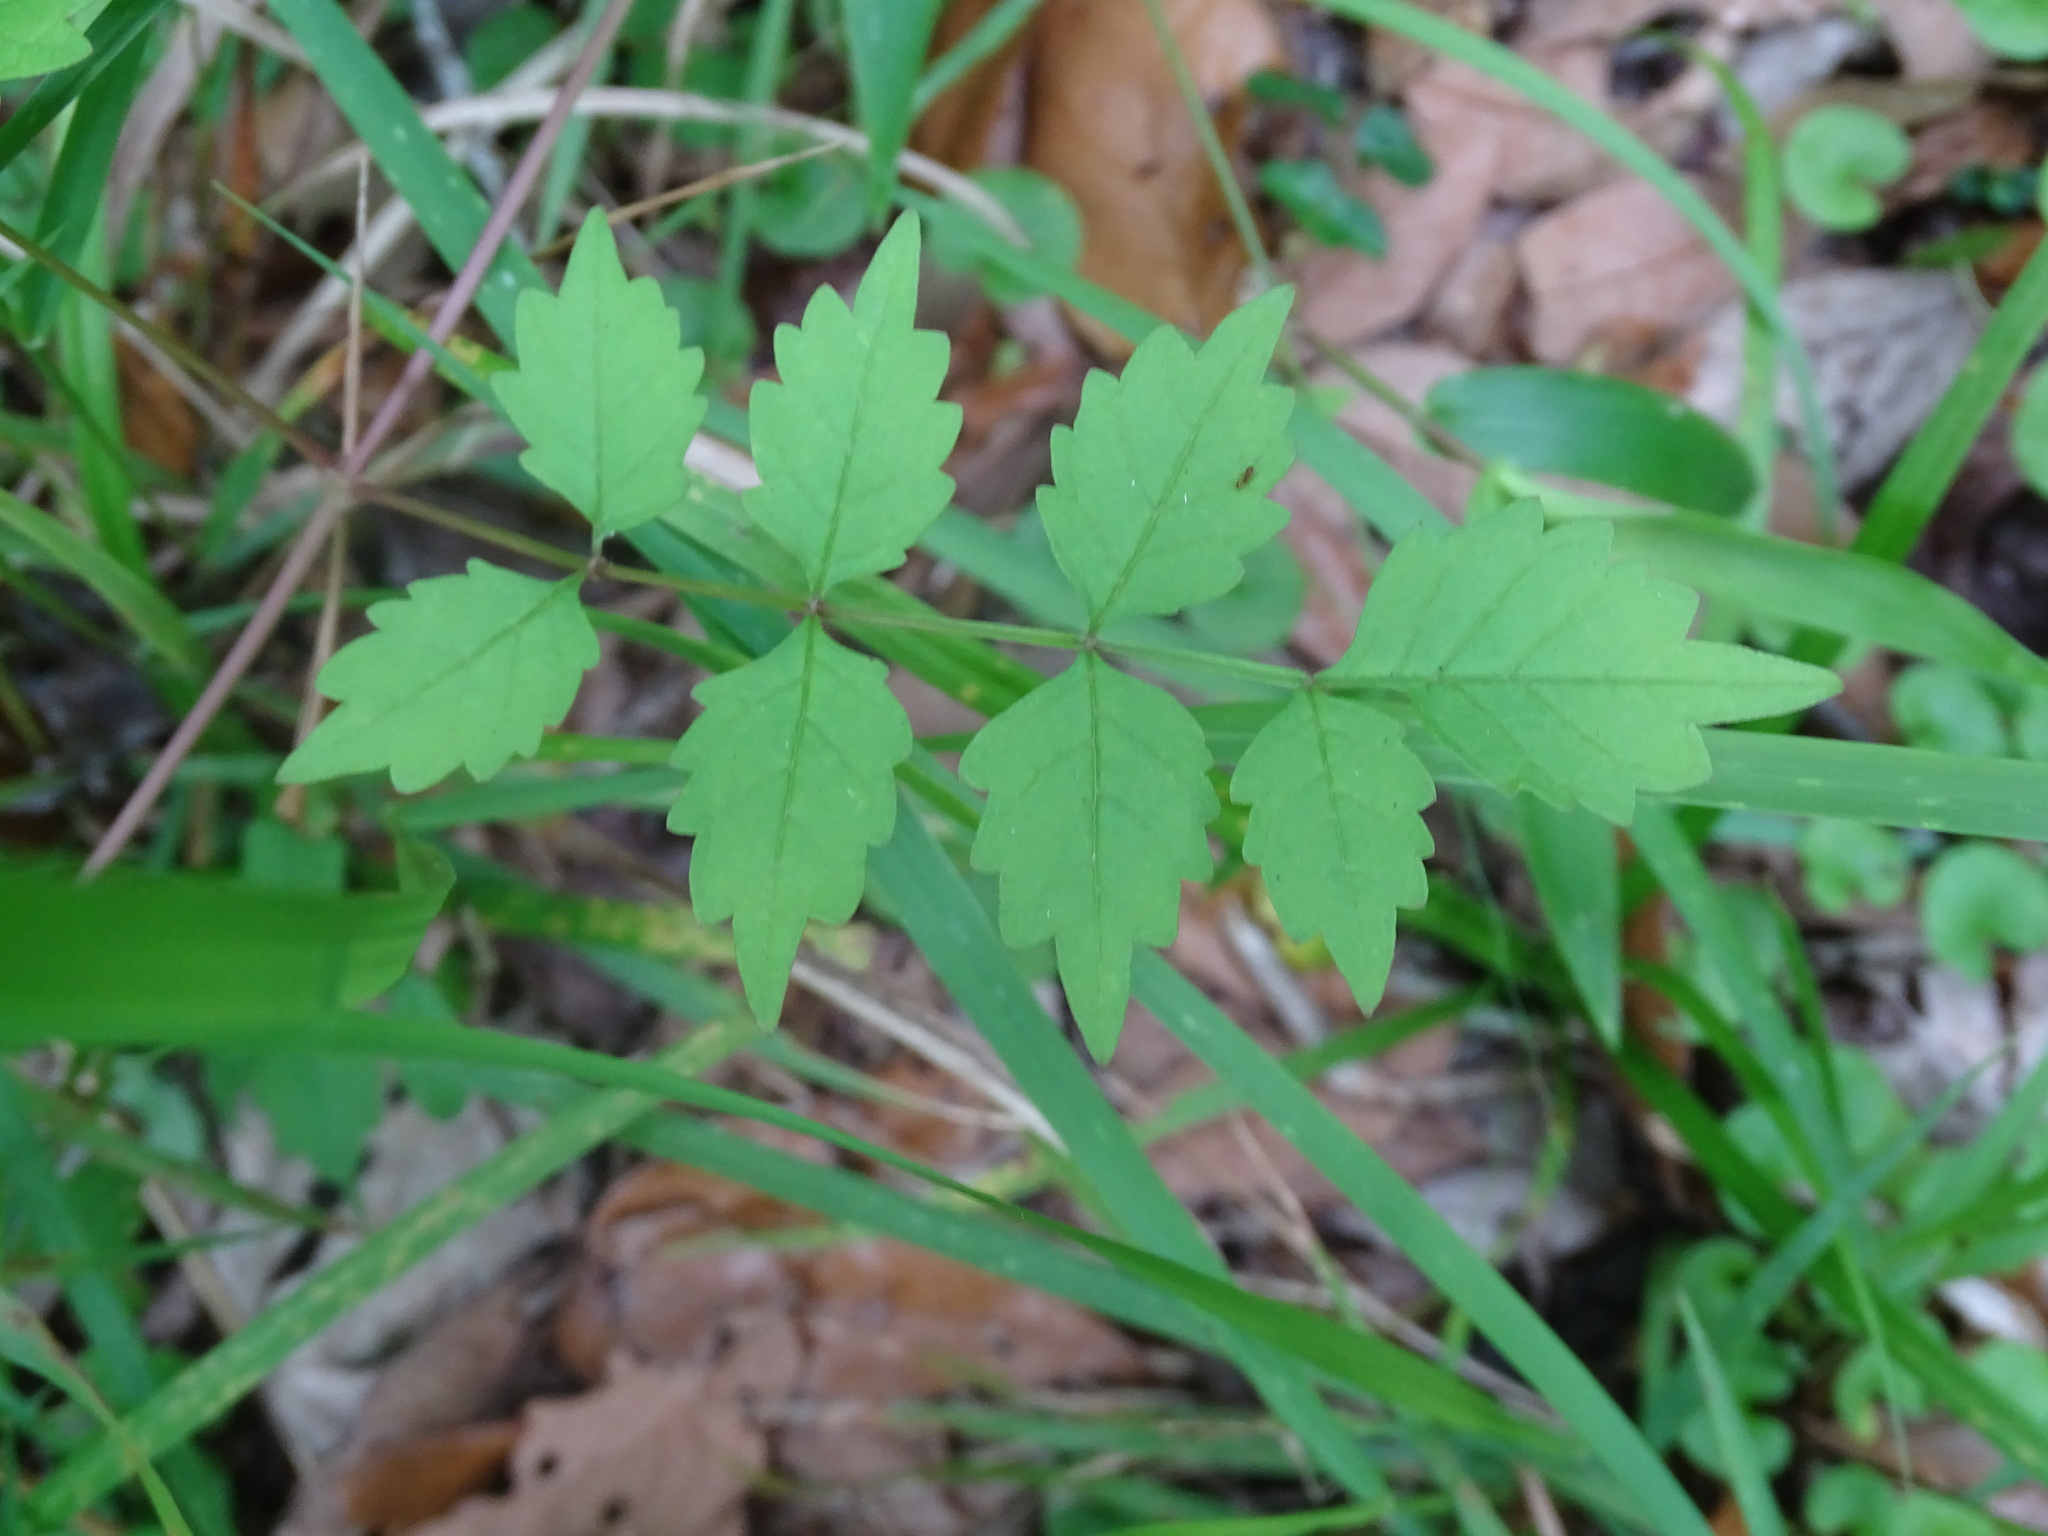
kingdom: Plantae
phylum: Tracheophyta
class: Magnoliopsida
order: Lamiales
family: Bignoniaceae
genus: Campsis
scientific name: Campsis radicans
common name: Trumpet-creeper
